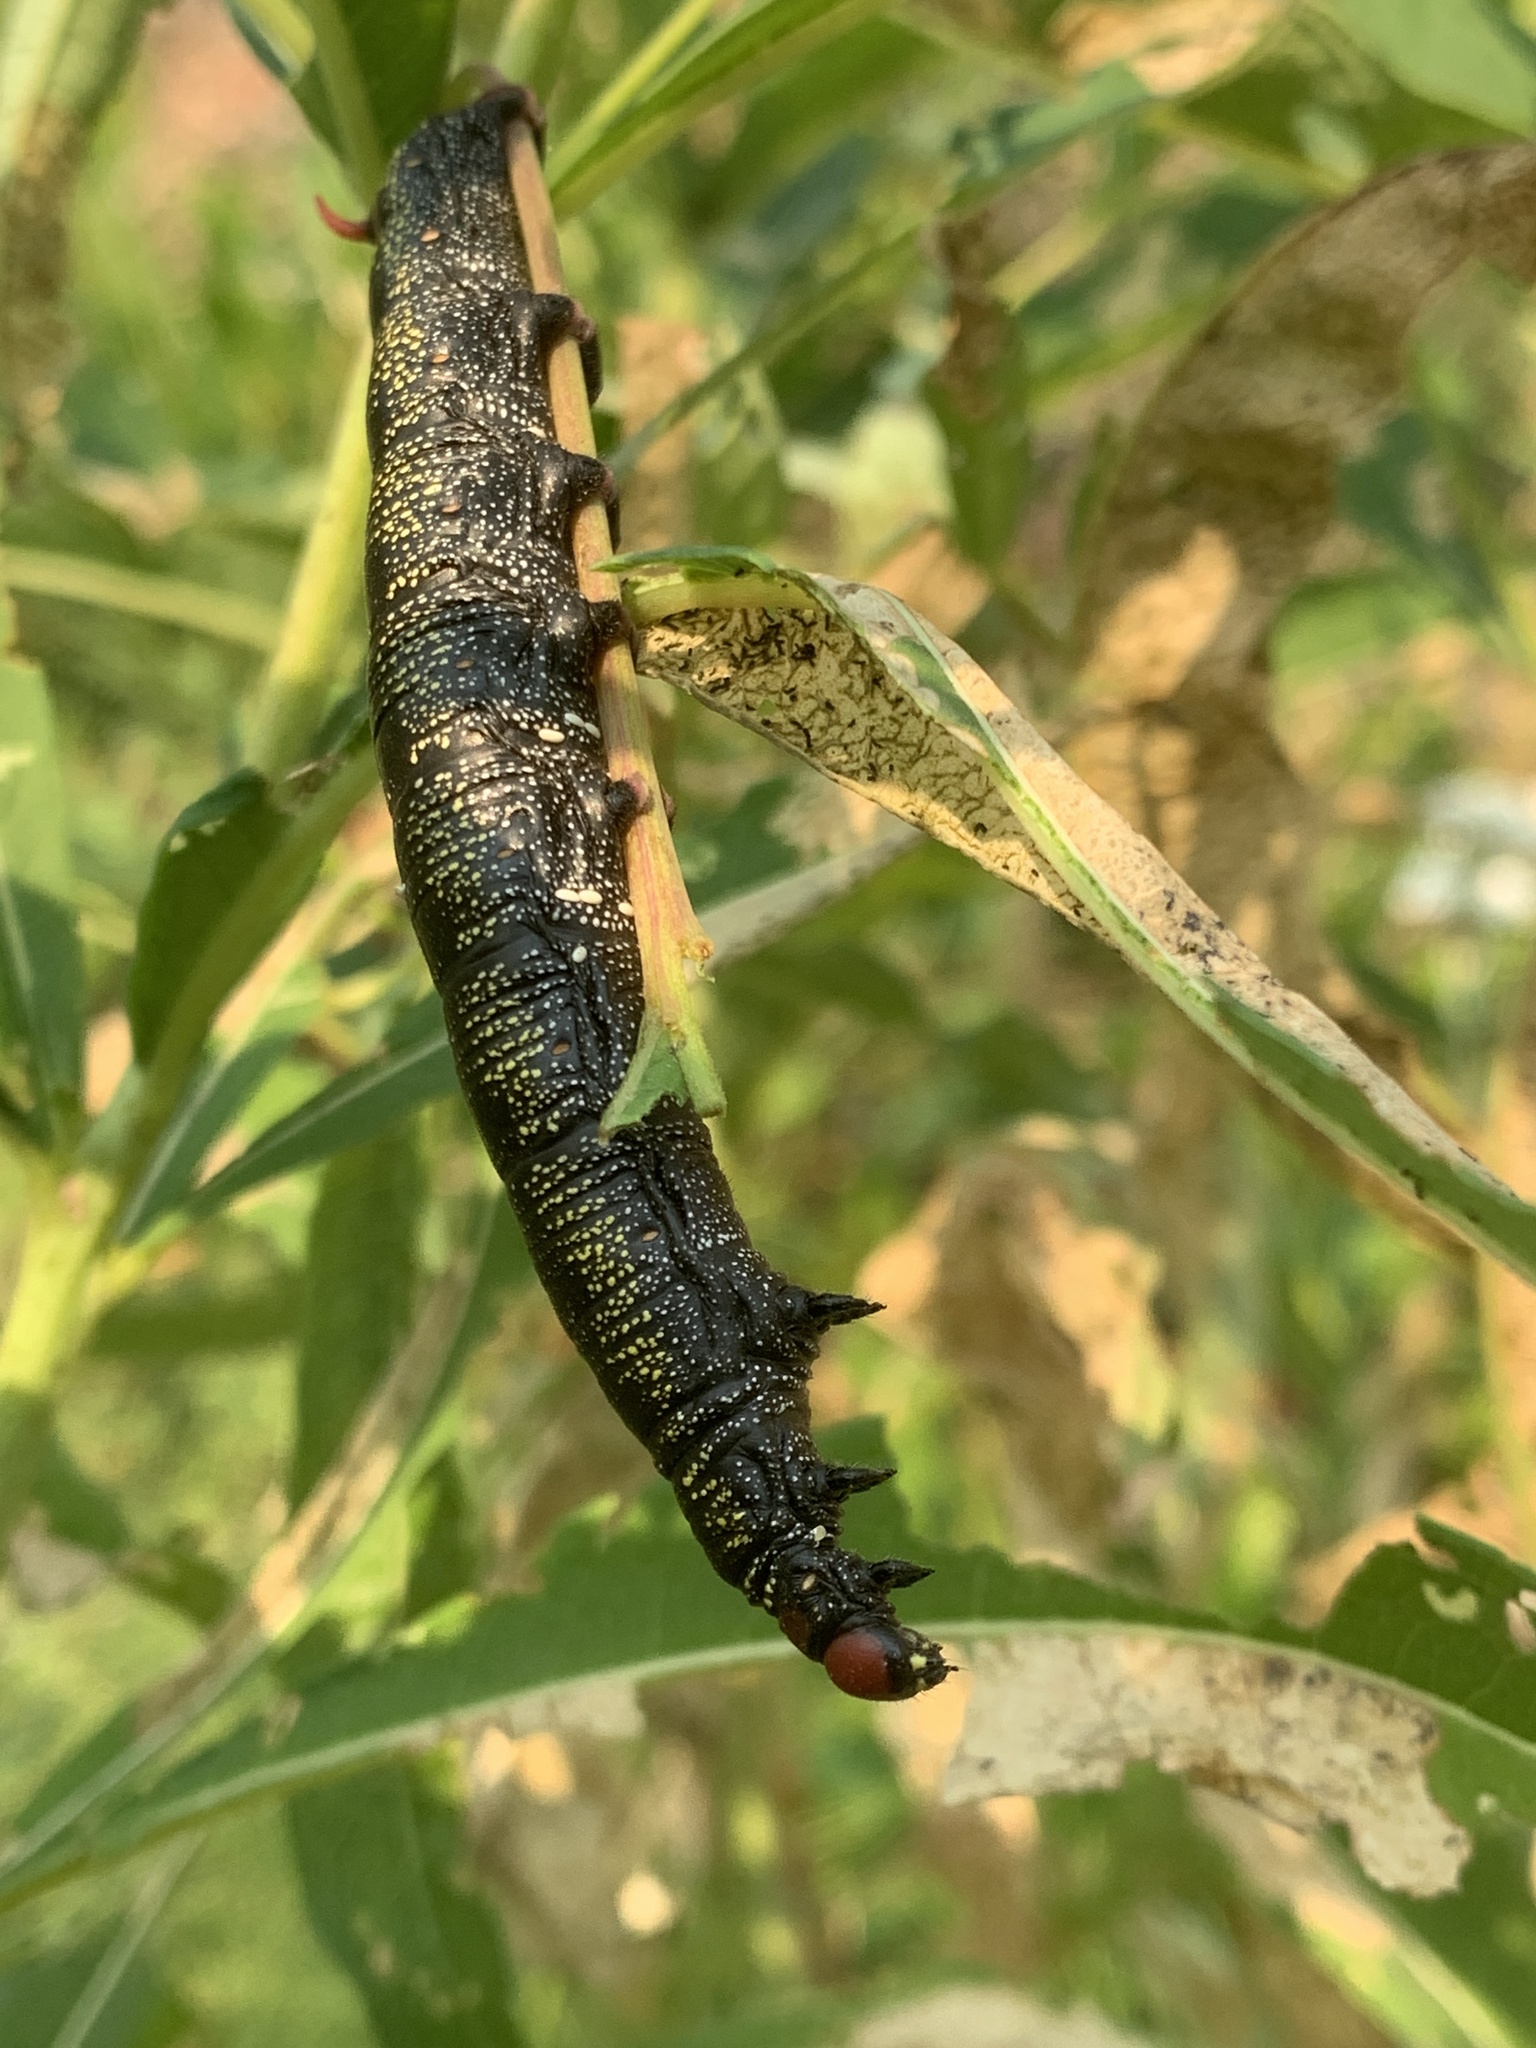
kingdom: Animalia
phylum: Arthropoda
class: Insecta
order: Lepidoptera
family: Sphingidae
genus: Hyles
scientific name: Hyles gallii
